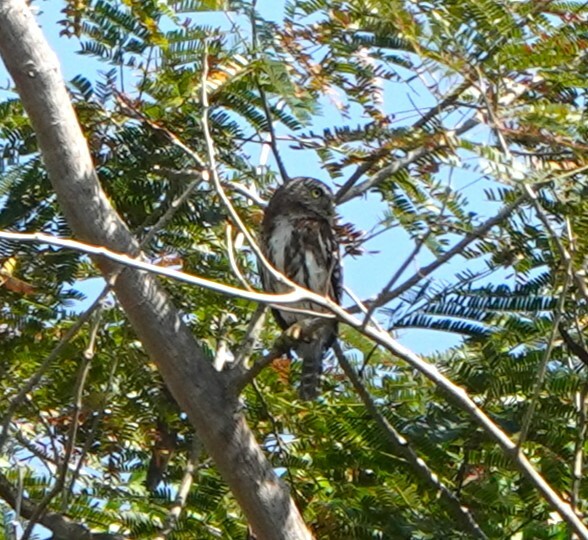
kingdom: Animalia
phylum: Chordata
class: Aves
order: Strigiformes
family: Strigidae
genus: Glaucidium
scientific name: Glaucidium brasilianum
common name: Ferruginous pygmy-owl
